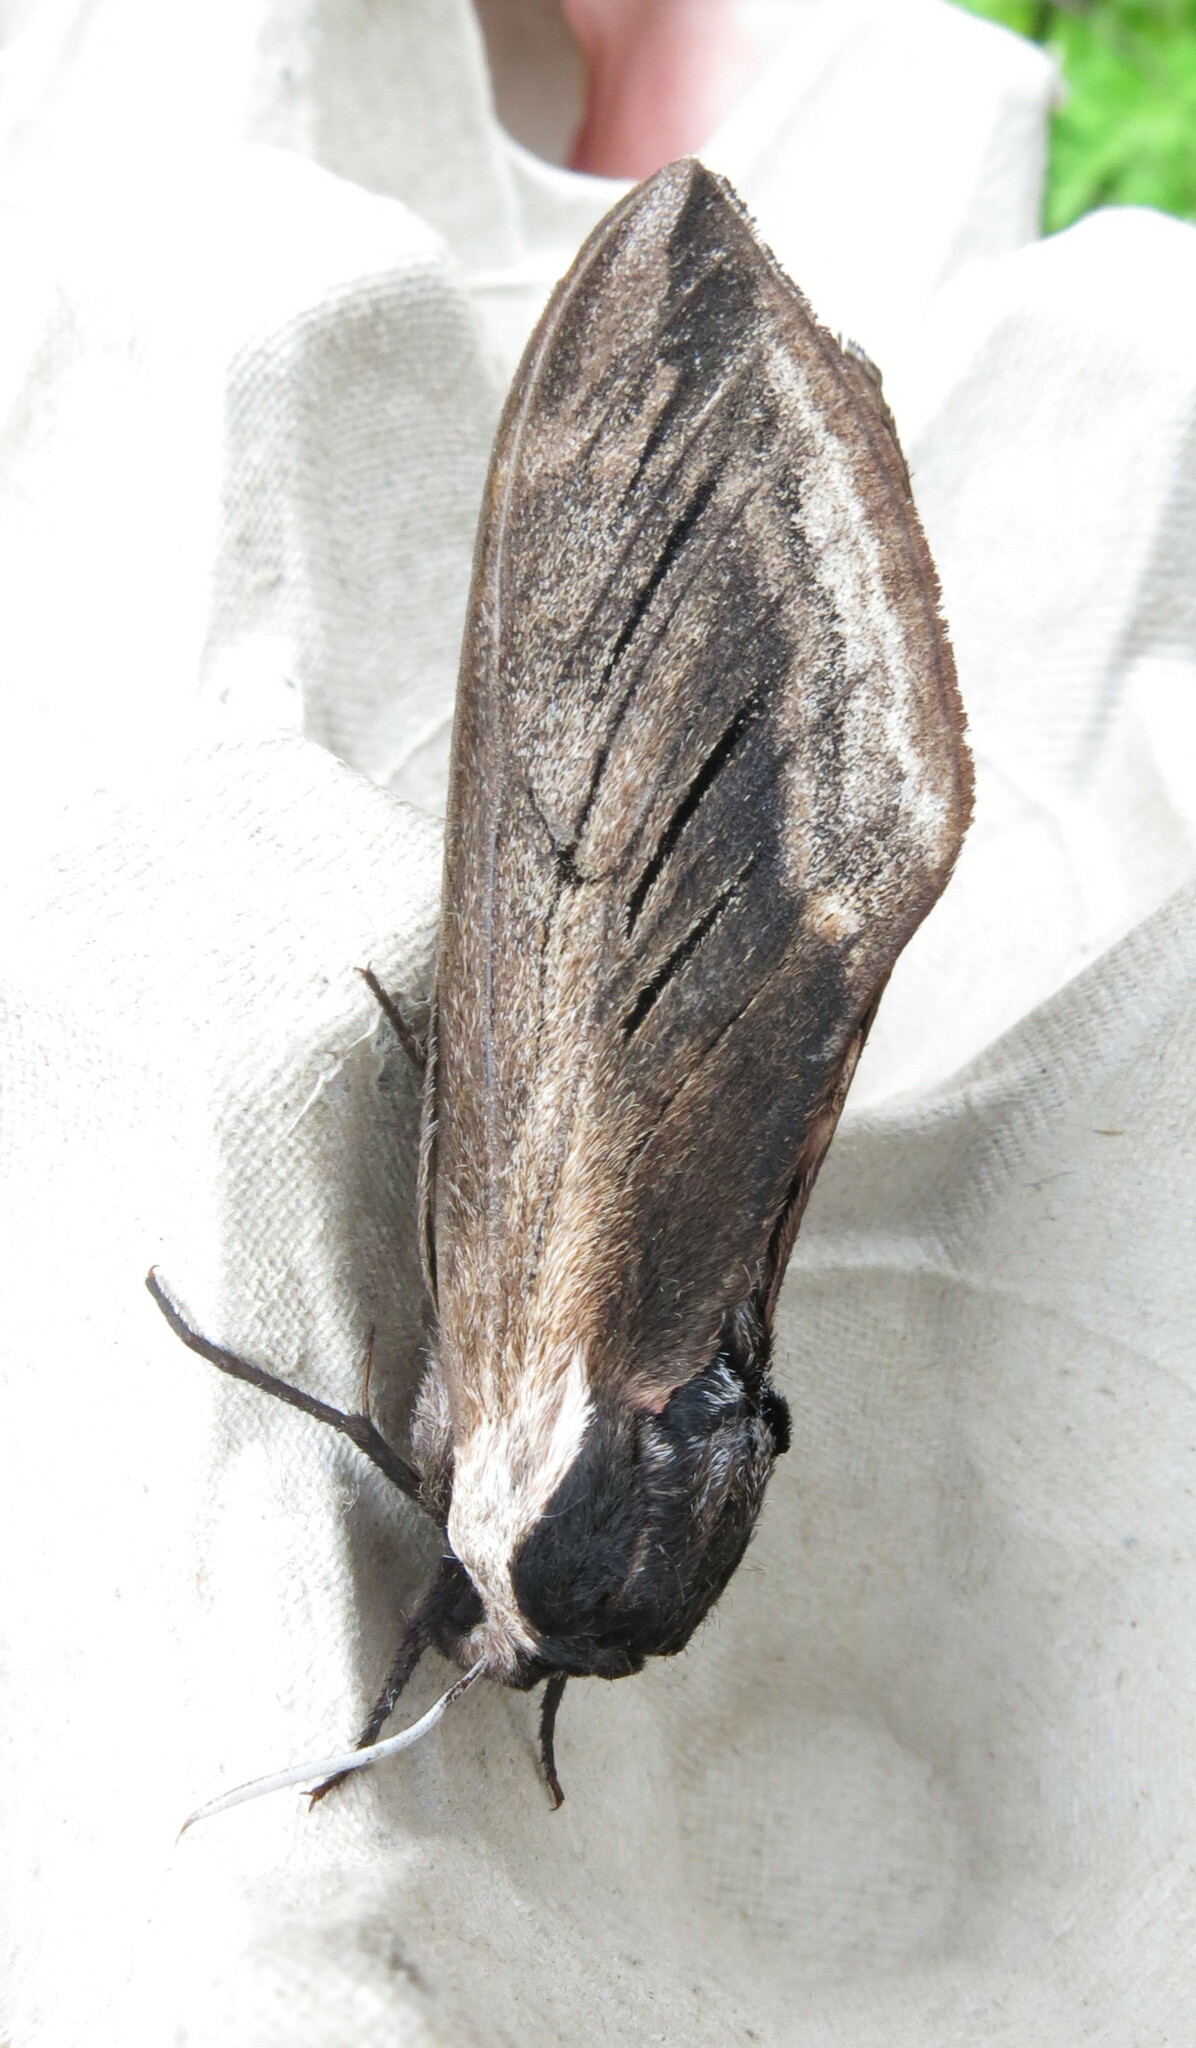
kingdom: Animalia
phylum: Arthropoda
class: Insecta
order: Lepidoptera
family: Sphingidae
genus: Sphinx
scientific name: Sphinx ligustri
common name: Privet hawk-moth
